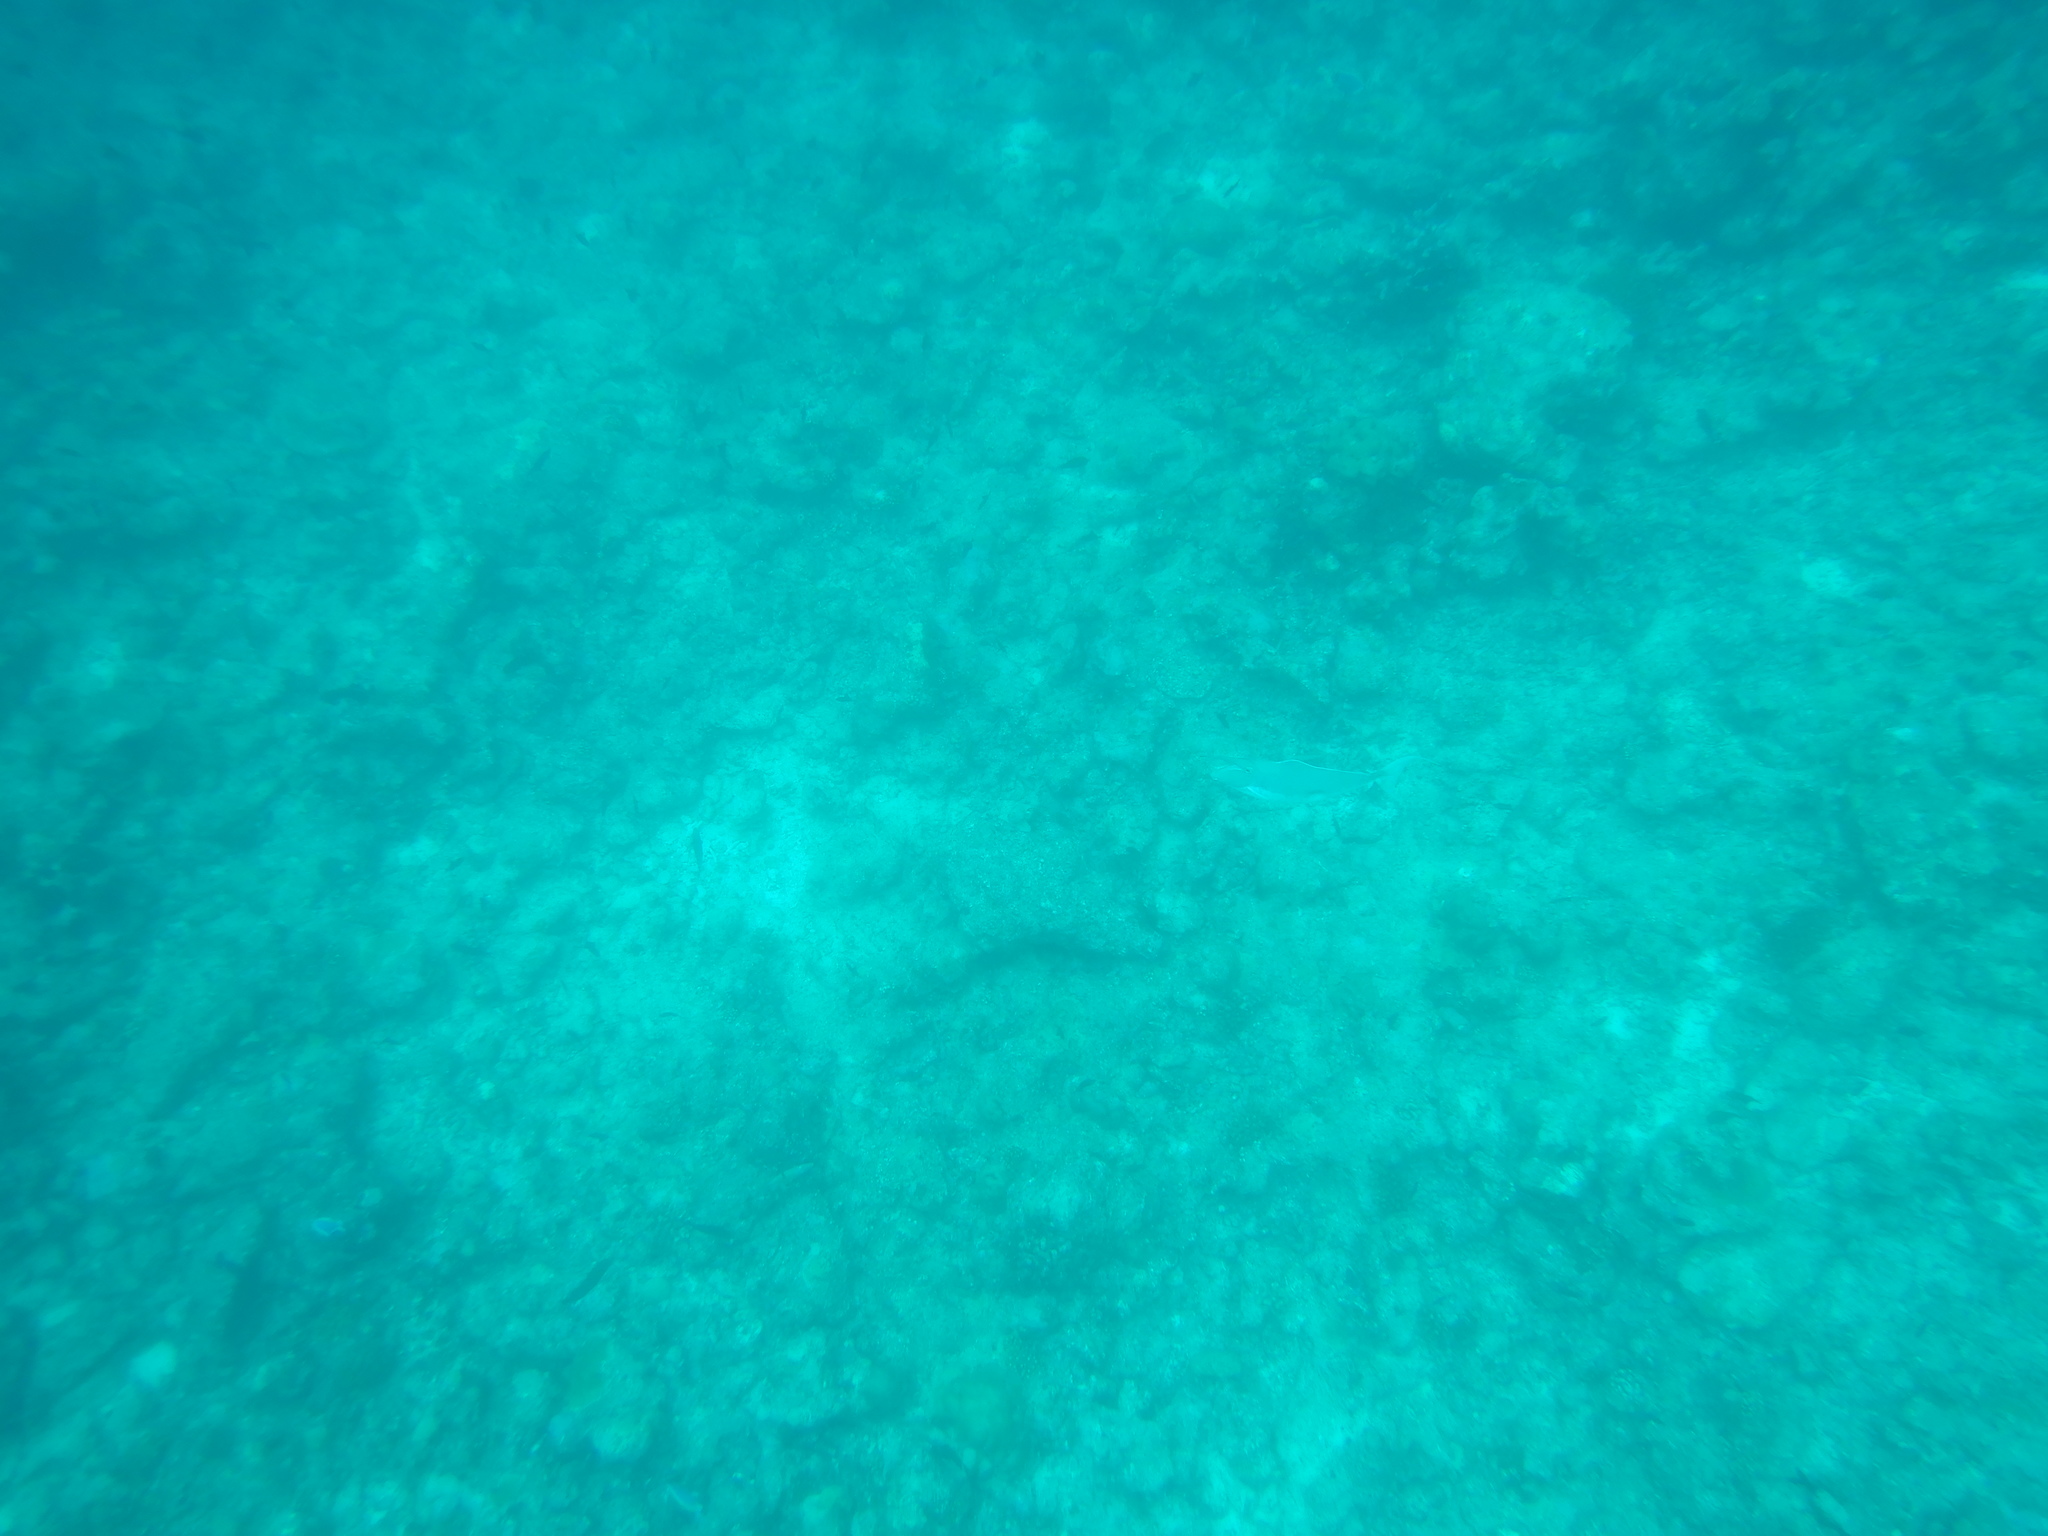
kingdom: Animalia
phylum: Chordata
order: Perciformes
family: Acanthuridae
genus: Naso
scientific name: Naso brachycentron
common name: Humpback unicornfish
